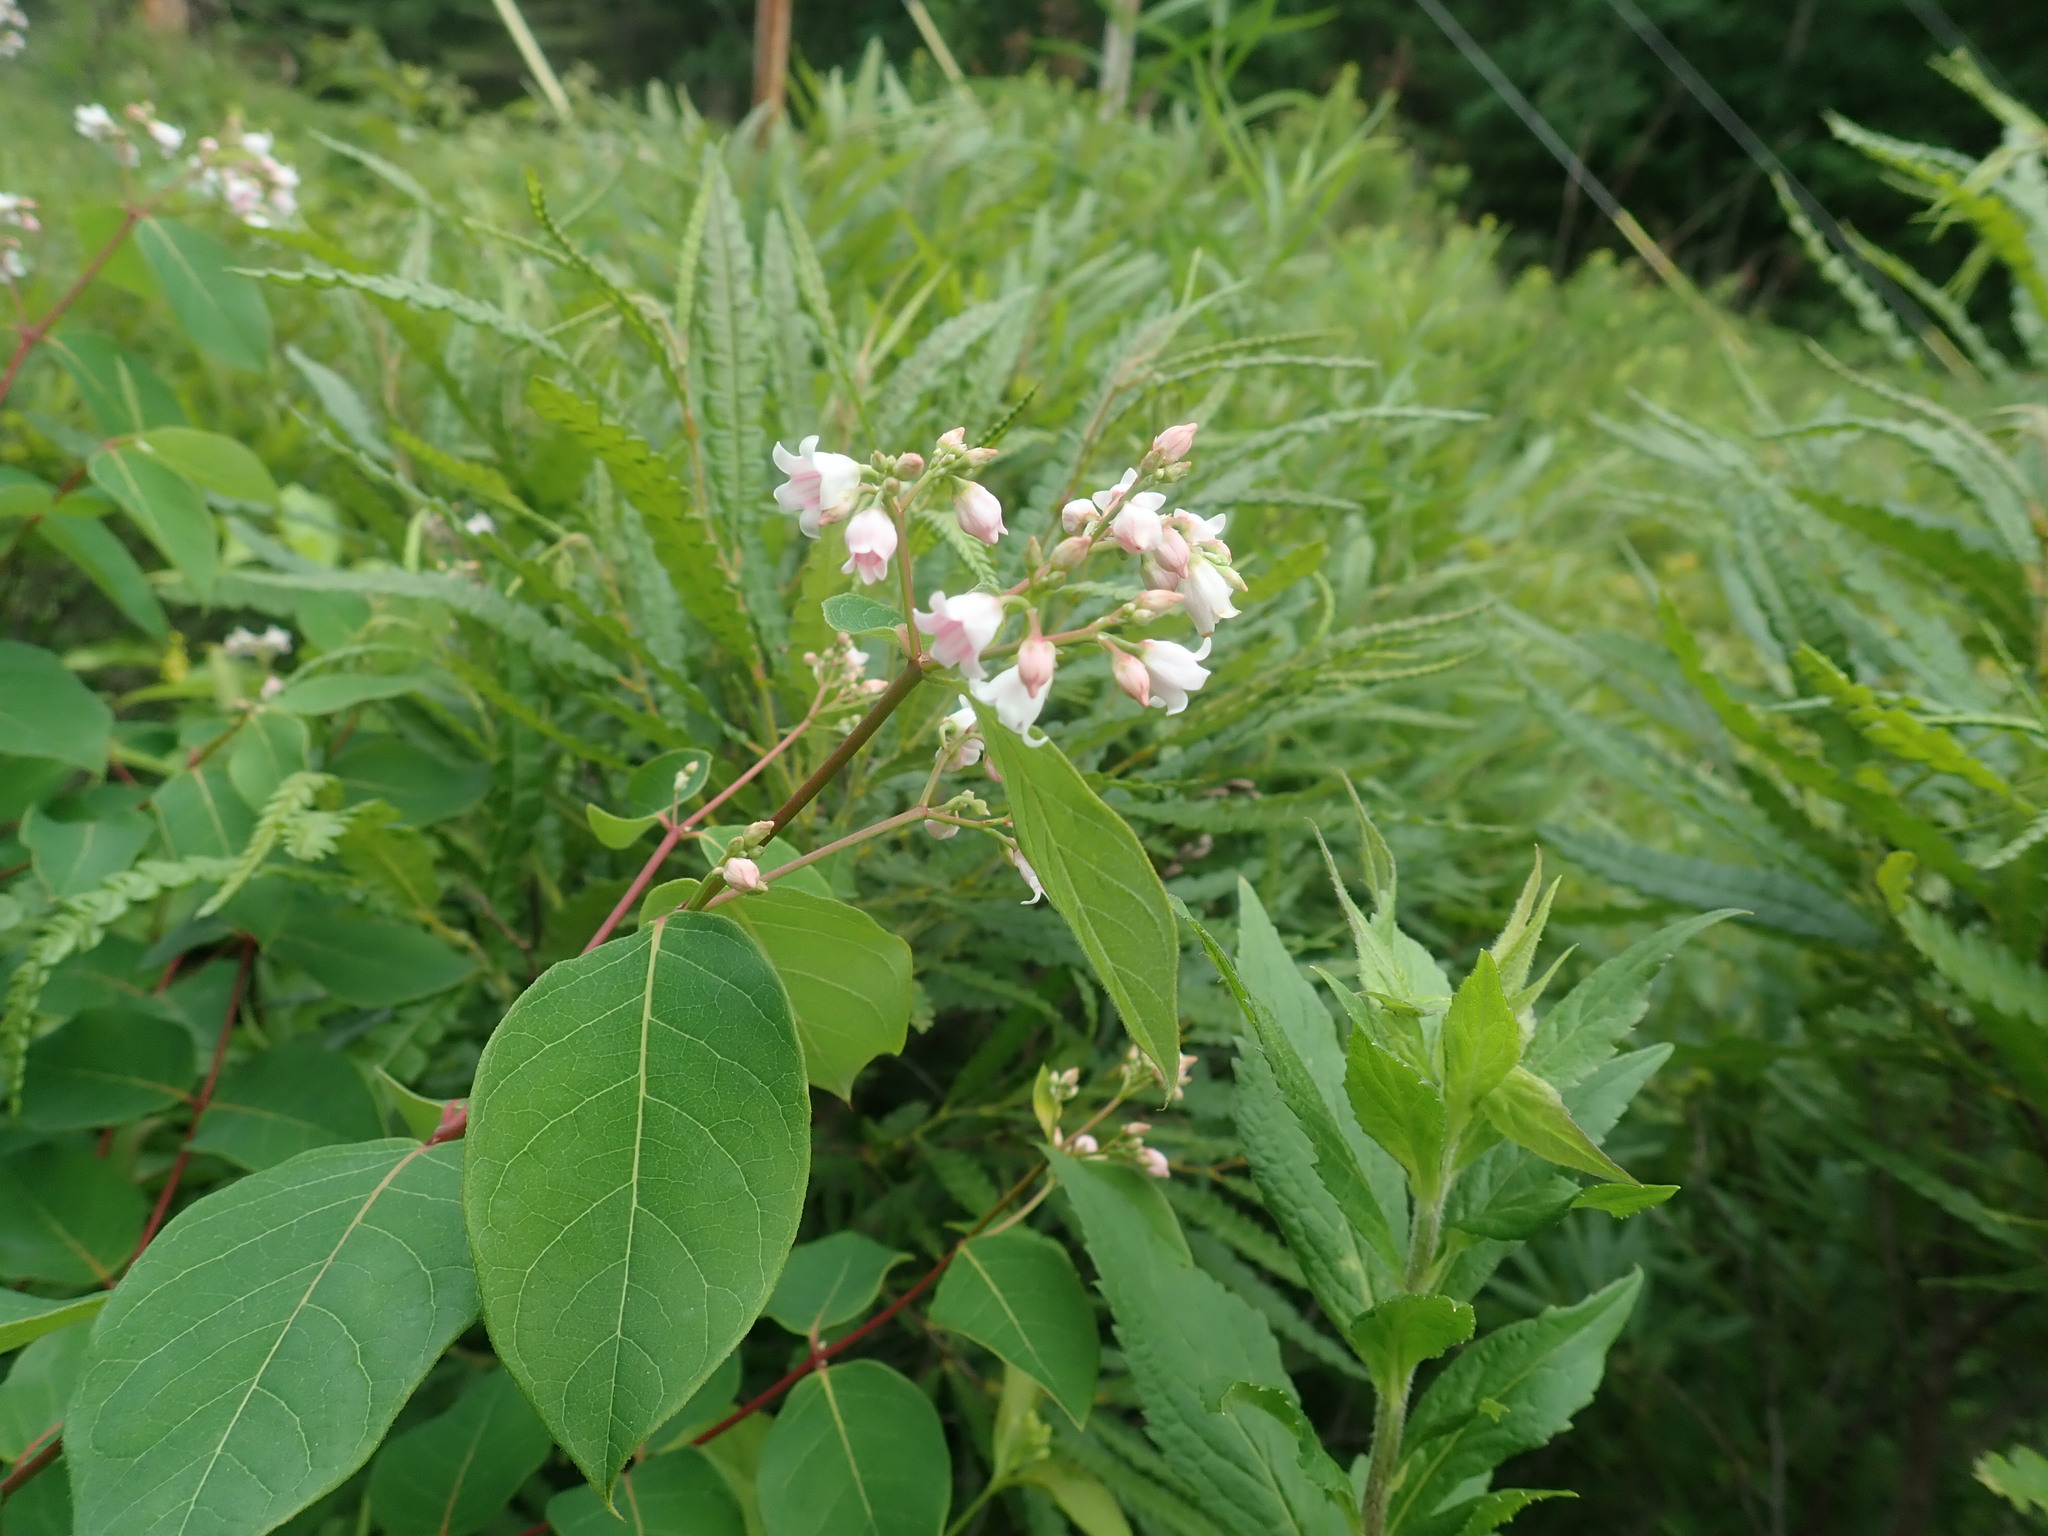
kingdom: Plantae
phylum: Tracheophyta
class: Magnoliopsida
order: Gentianales
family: Apocynaceae
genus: Apocynum
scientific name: Apocynum androsaemifolium
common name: Spreading dogbane
